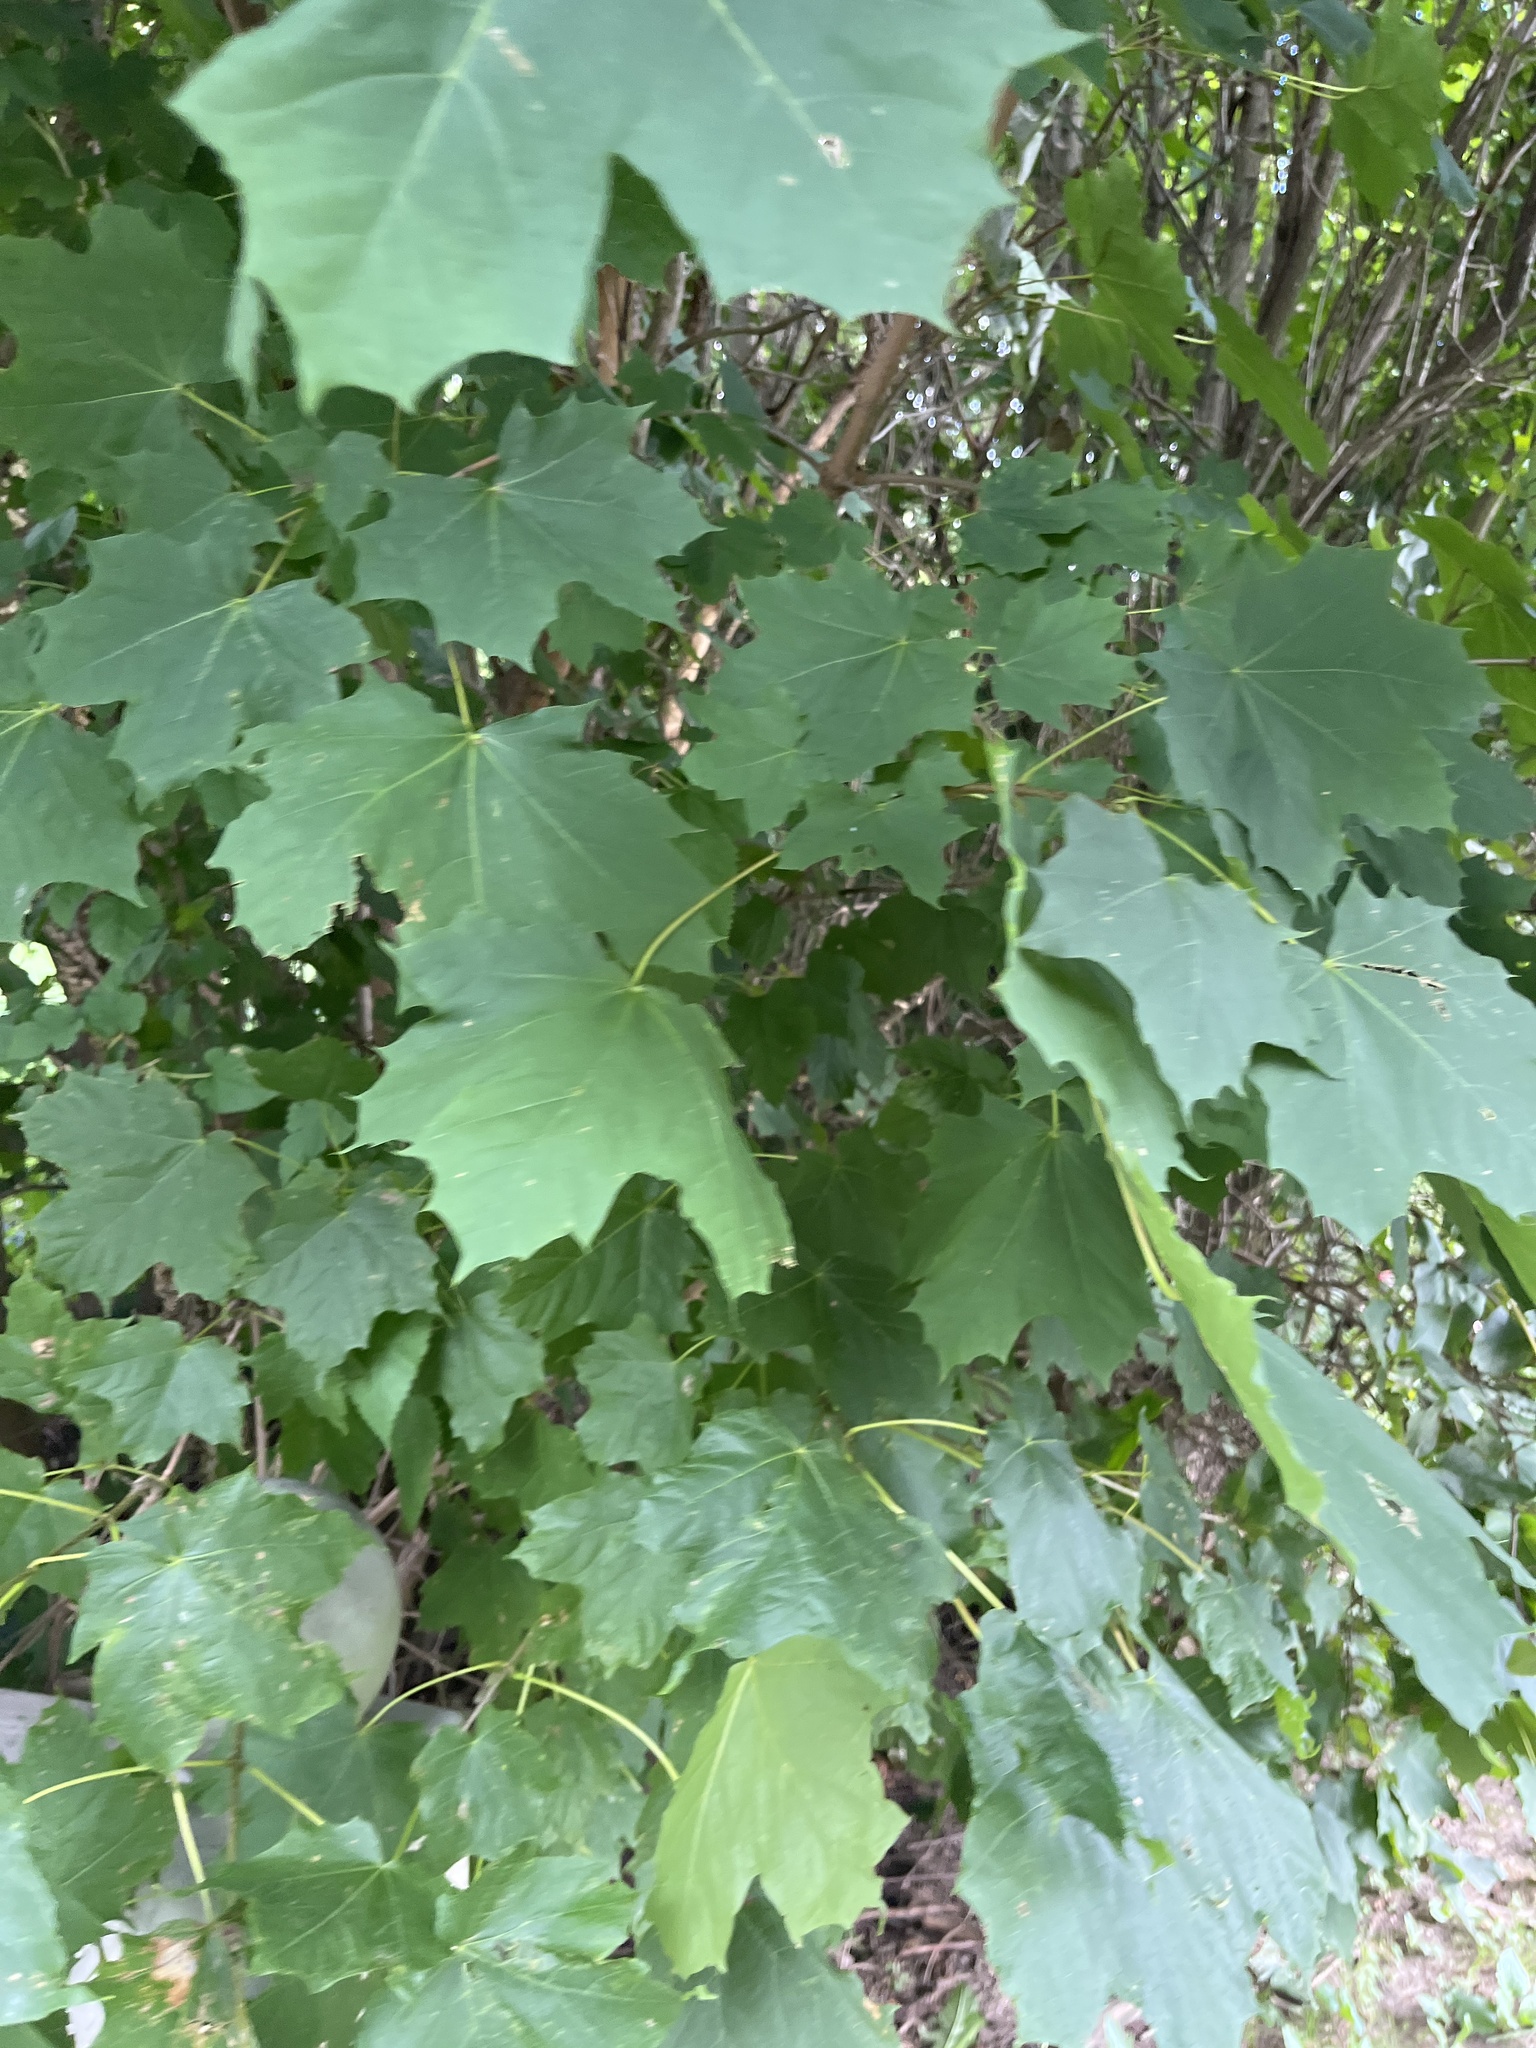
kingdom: Plantae
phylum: Tracheophyta
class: Magnoliopsida
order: Sapindales
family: Sapindaceae
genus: Acer
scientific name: Acer platanoides
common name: Norway maple
